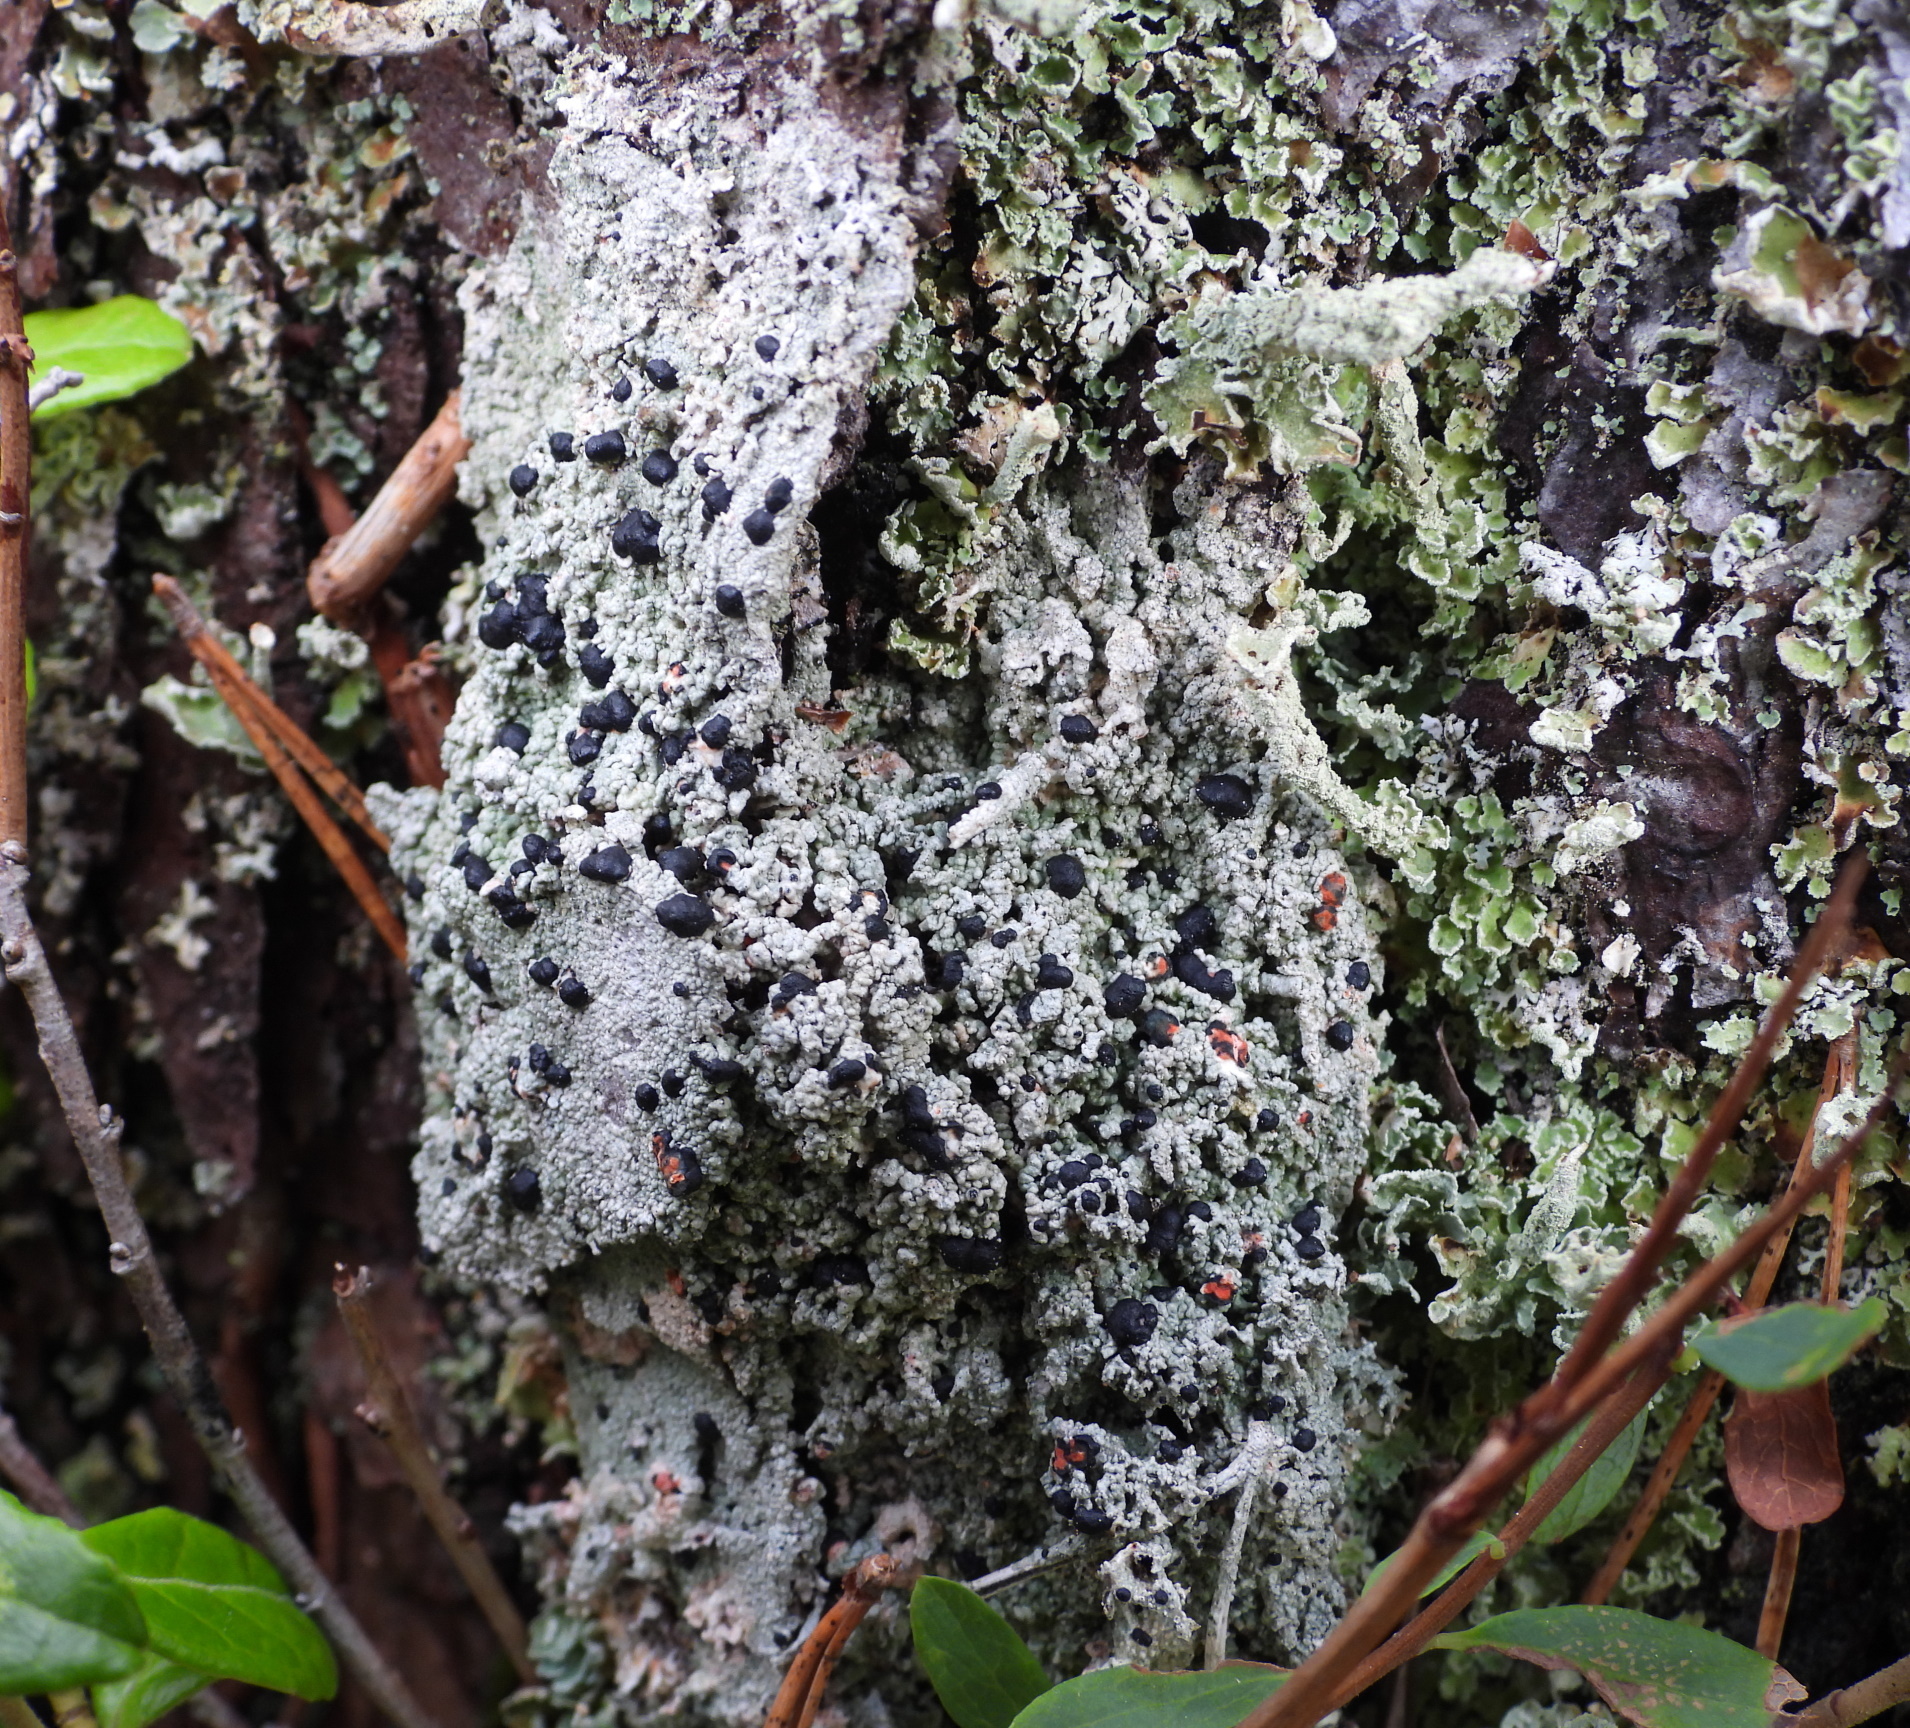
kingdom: Fungi
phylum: Ascomycota
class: Lecanoromycetes
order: Lecanorales
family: Tephromelataceae
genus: Mycoblastus
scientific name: Mycoblastus sanguinarius
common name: Bloody-heart lichen
